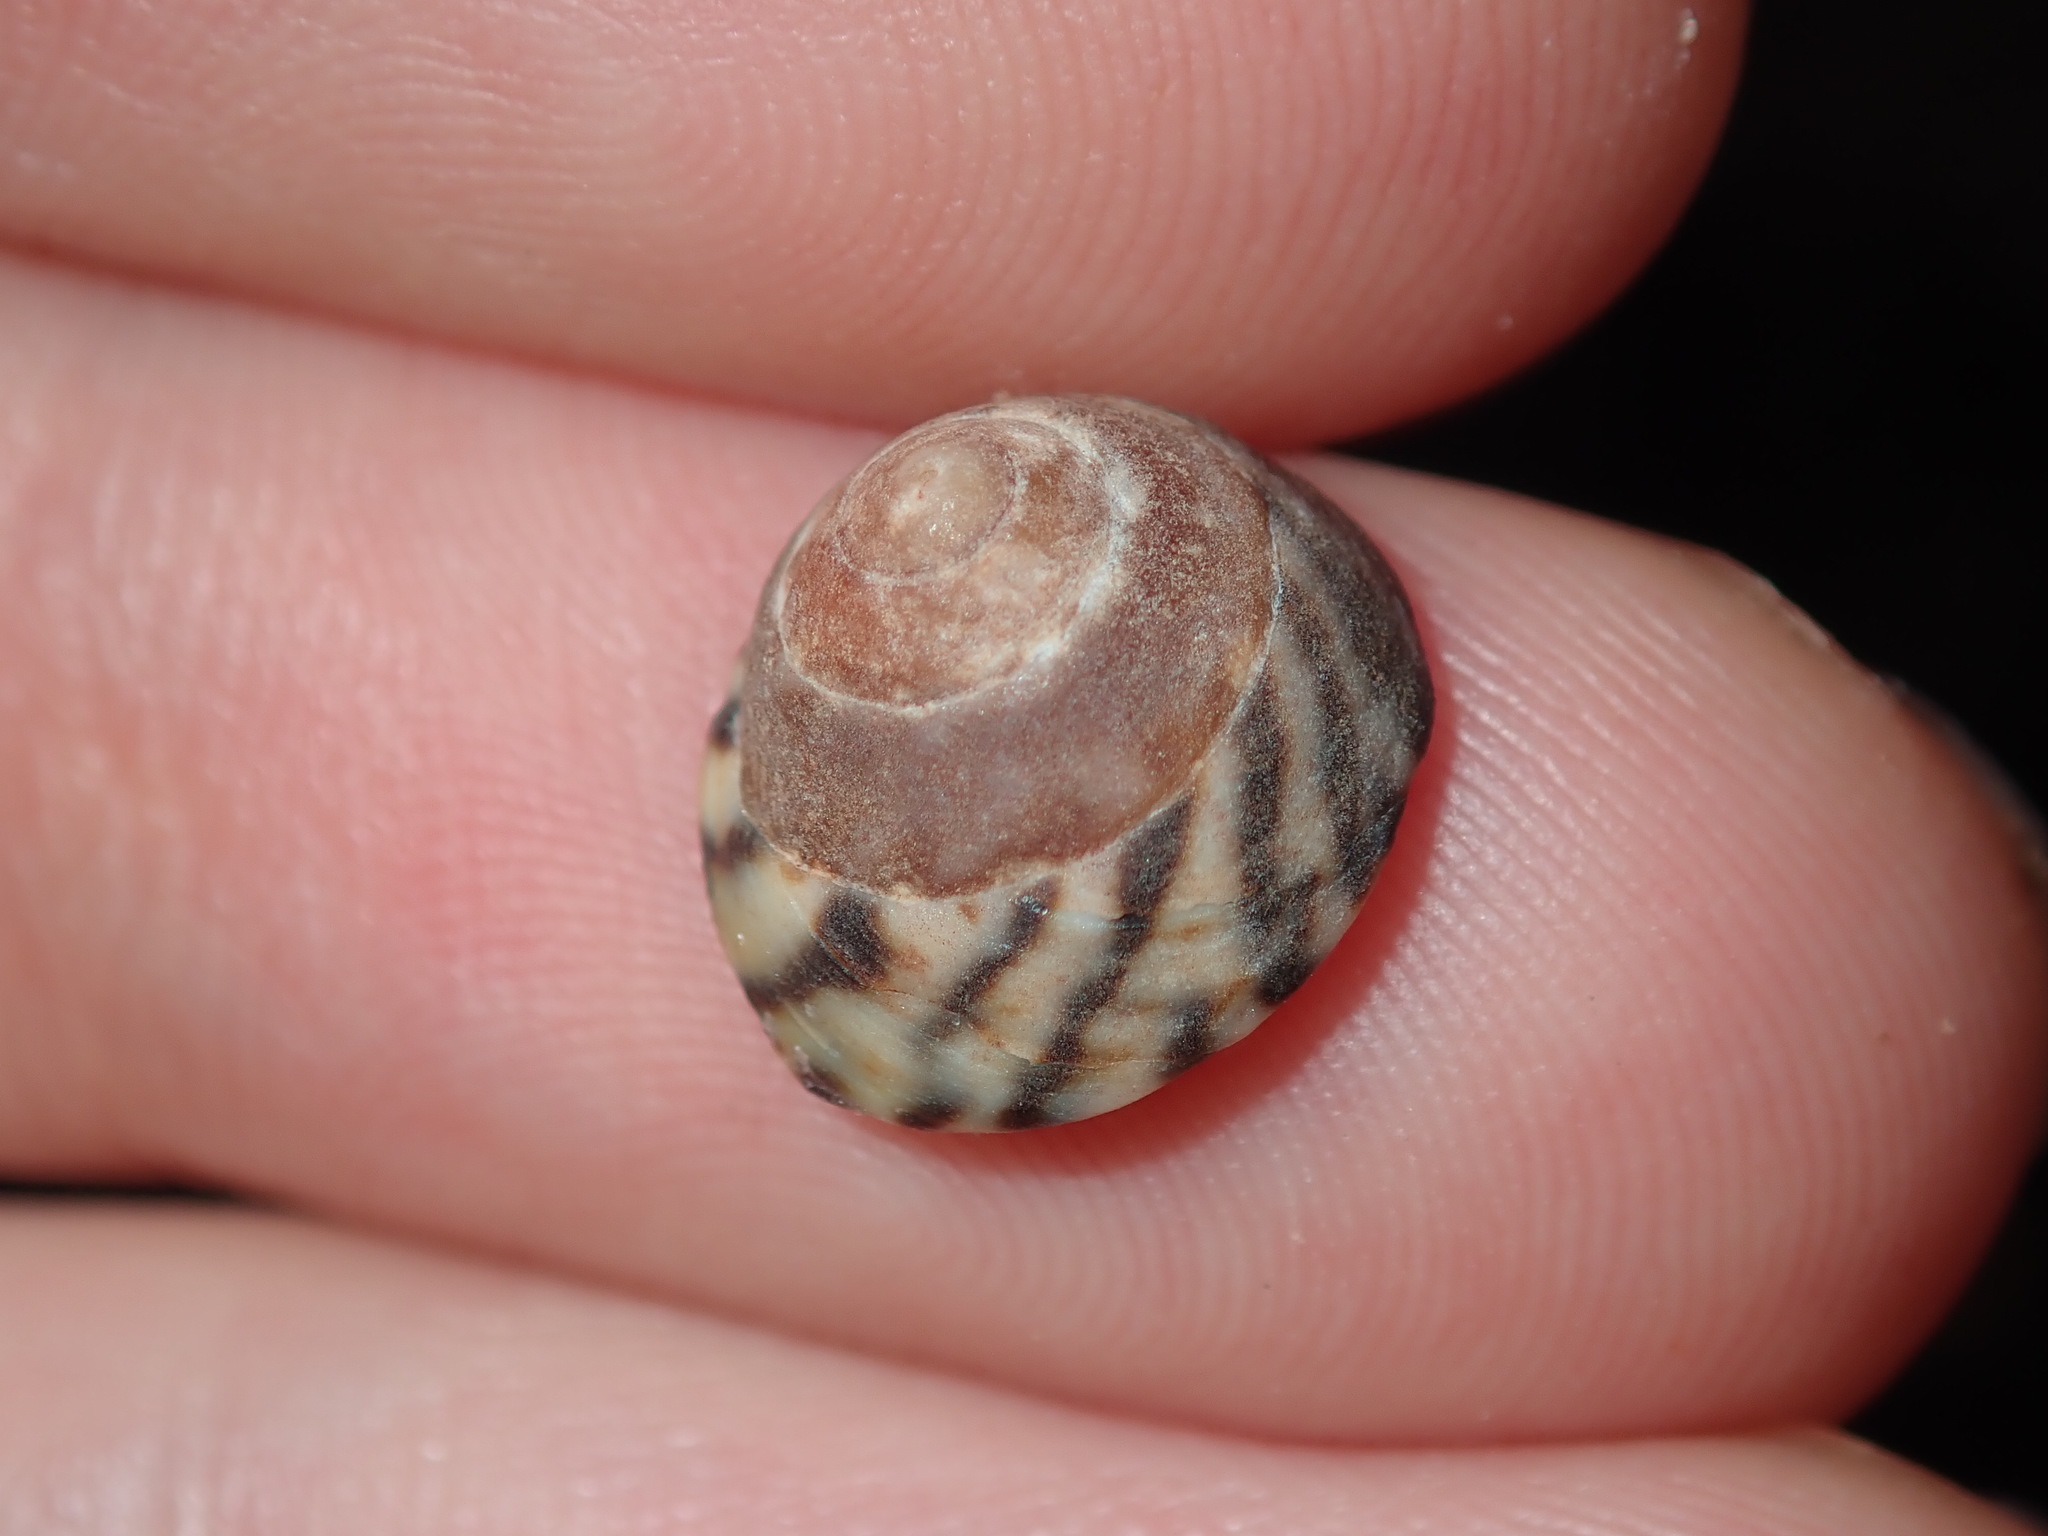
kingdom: Animalia
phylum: Mollusca
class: Gastropoda
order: Littorinimorpha
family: Littorinidae
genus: Bembicium
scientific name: Bembicium nanum
